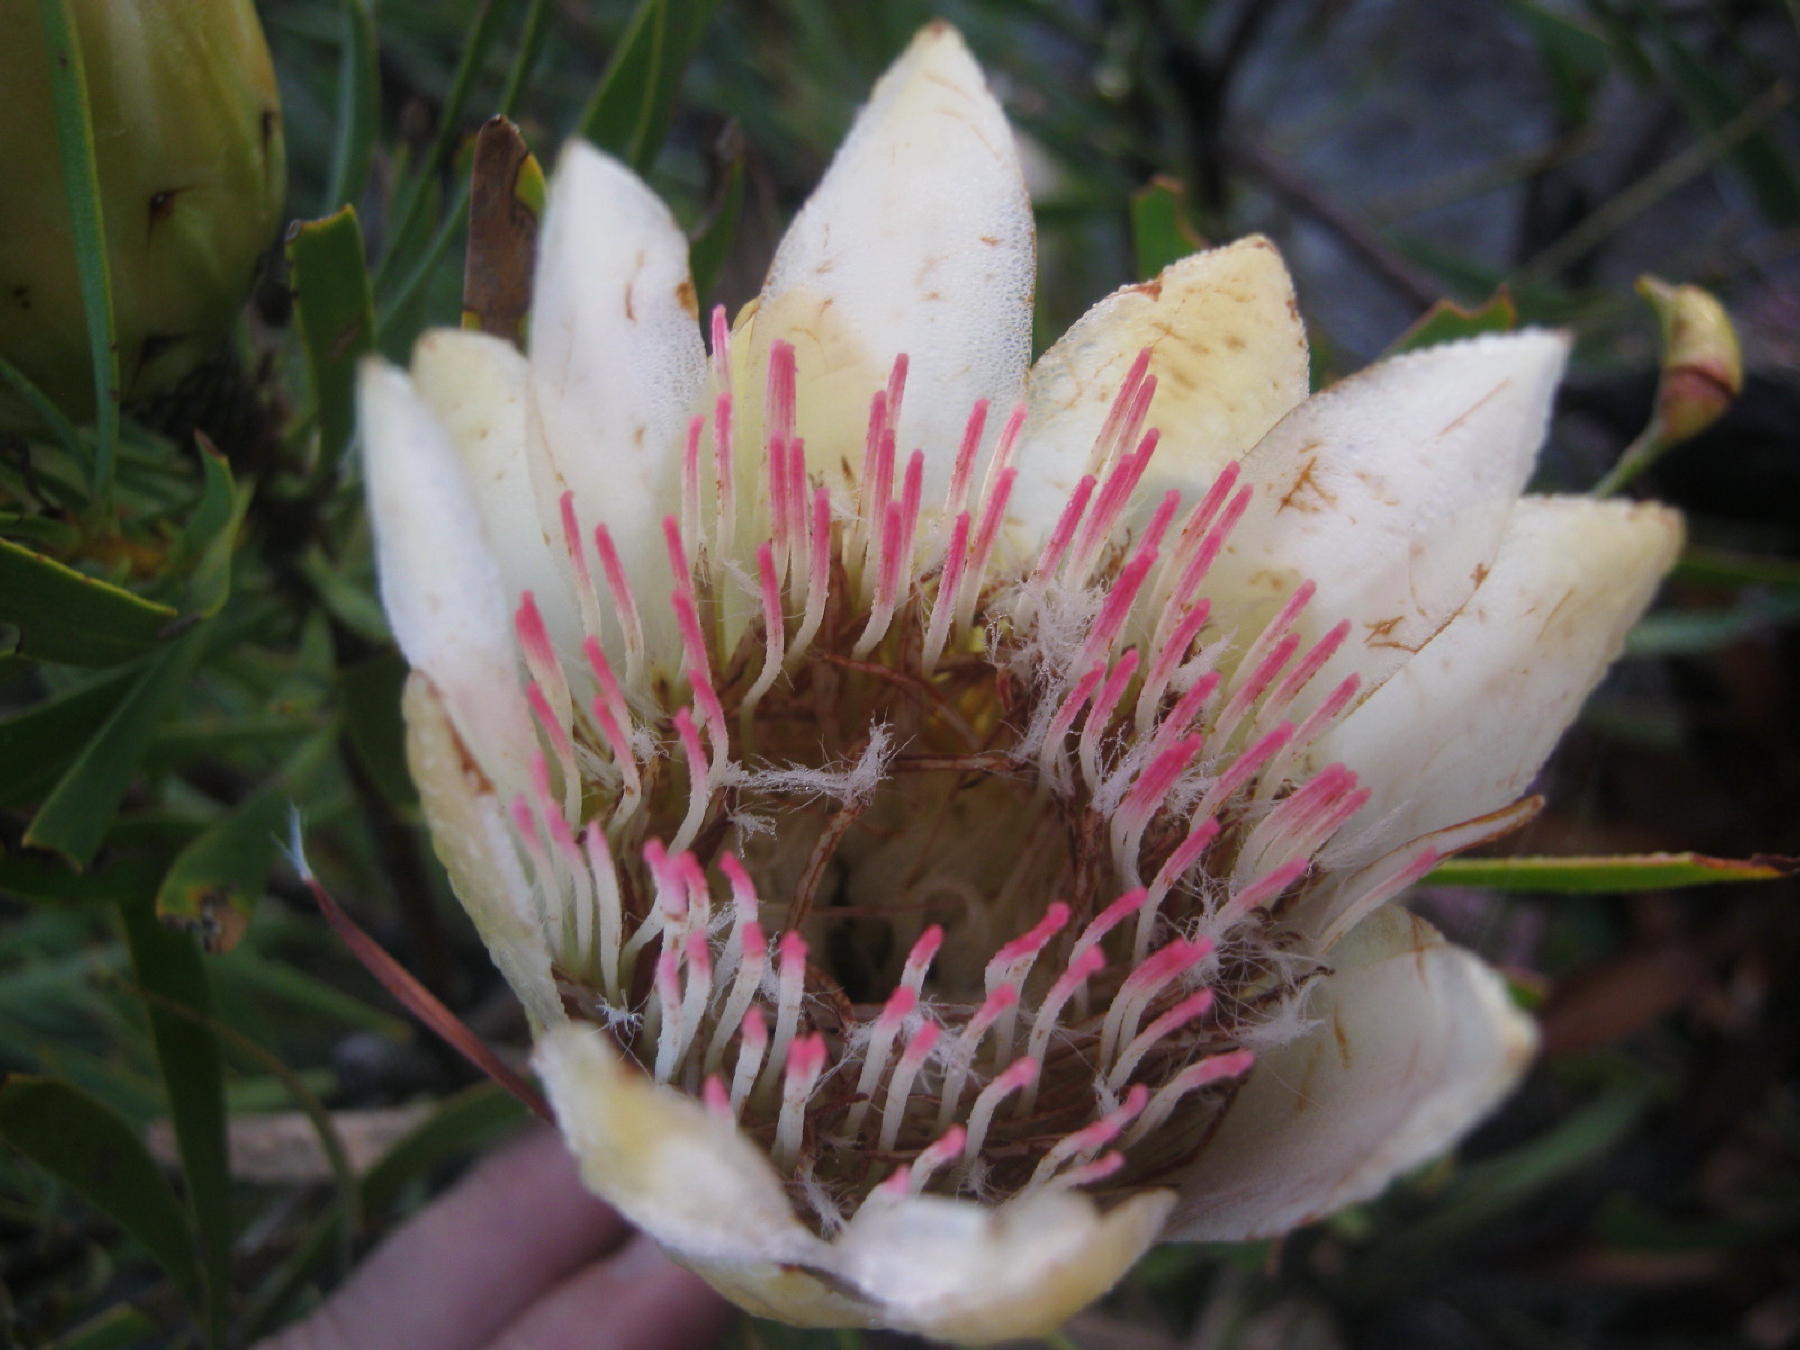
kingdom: Plantae
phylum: Tracheophyta
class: Magnoliopsida
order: Proteales
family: Proteaceae
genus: Protea
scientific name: Protea repens
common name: Sugarbush
